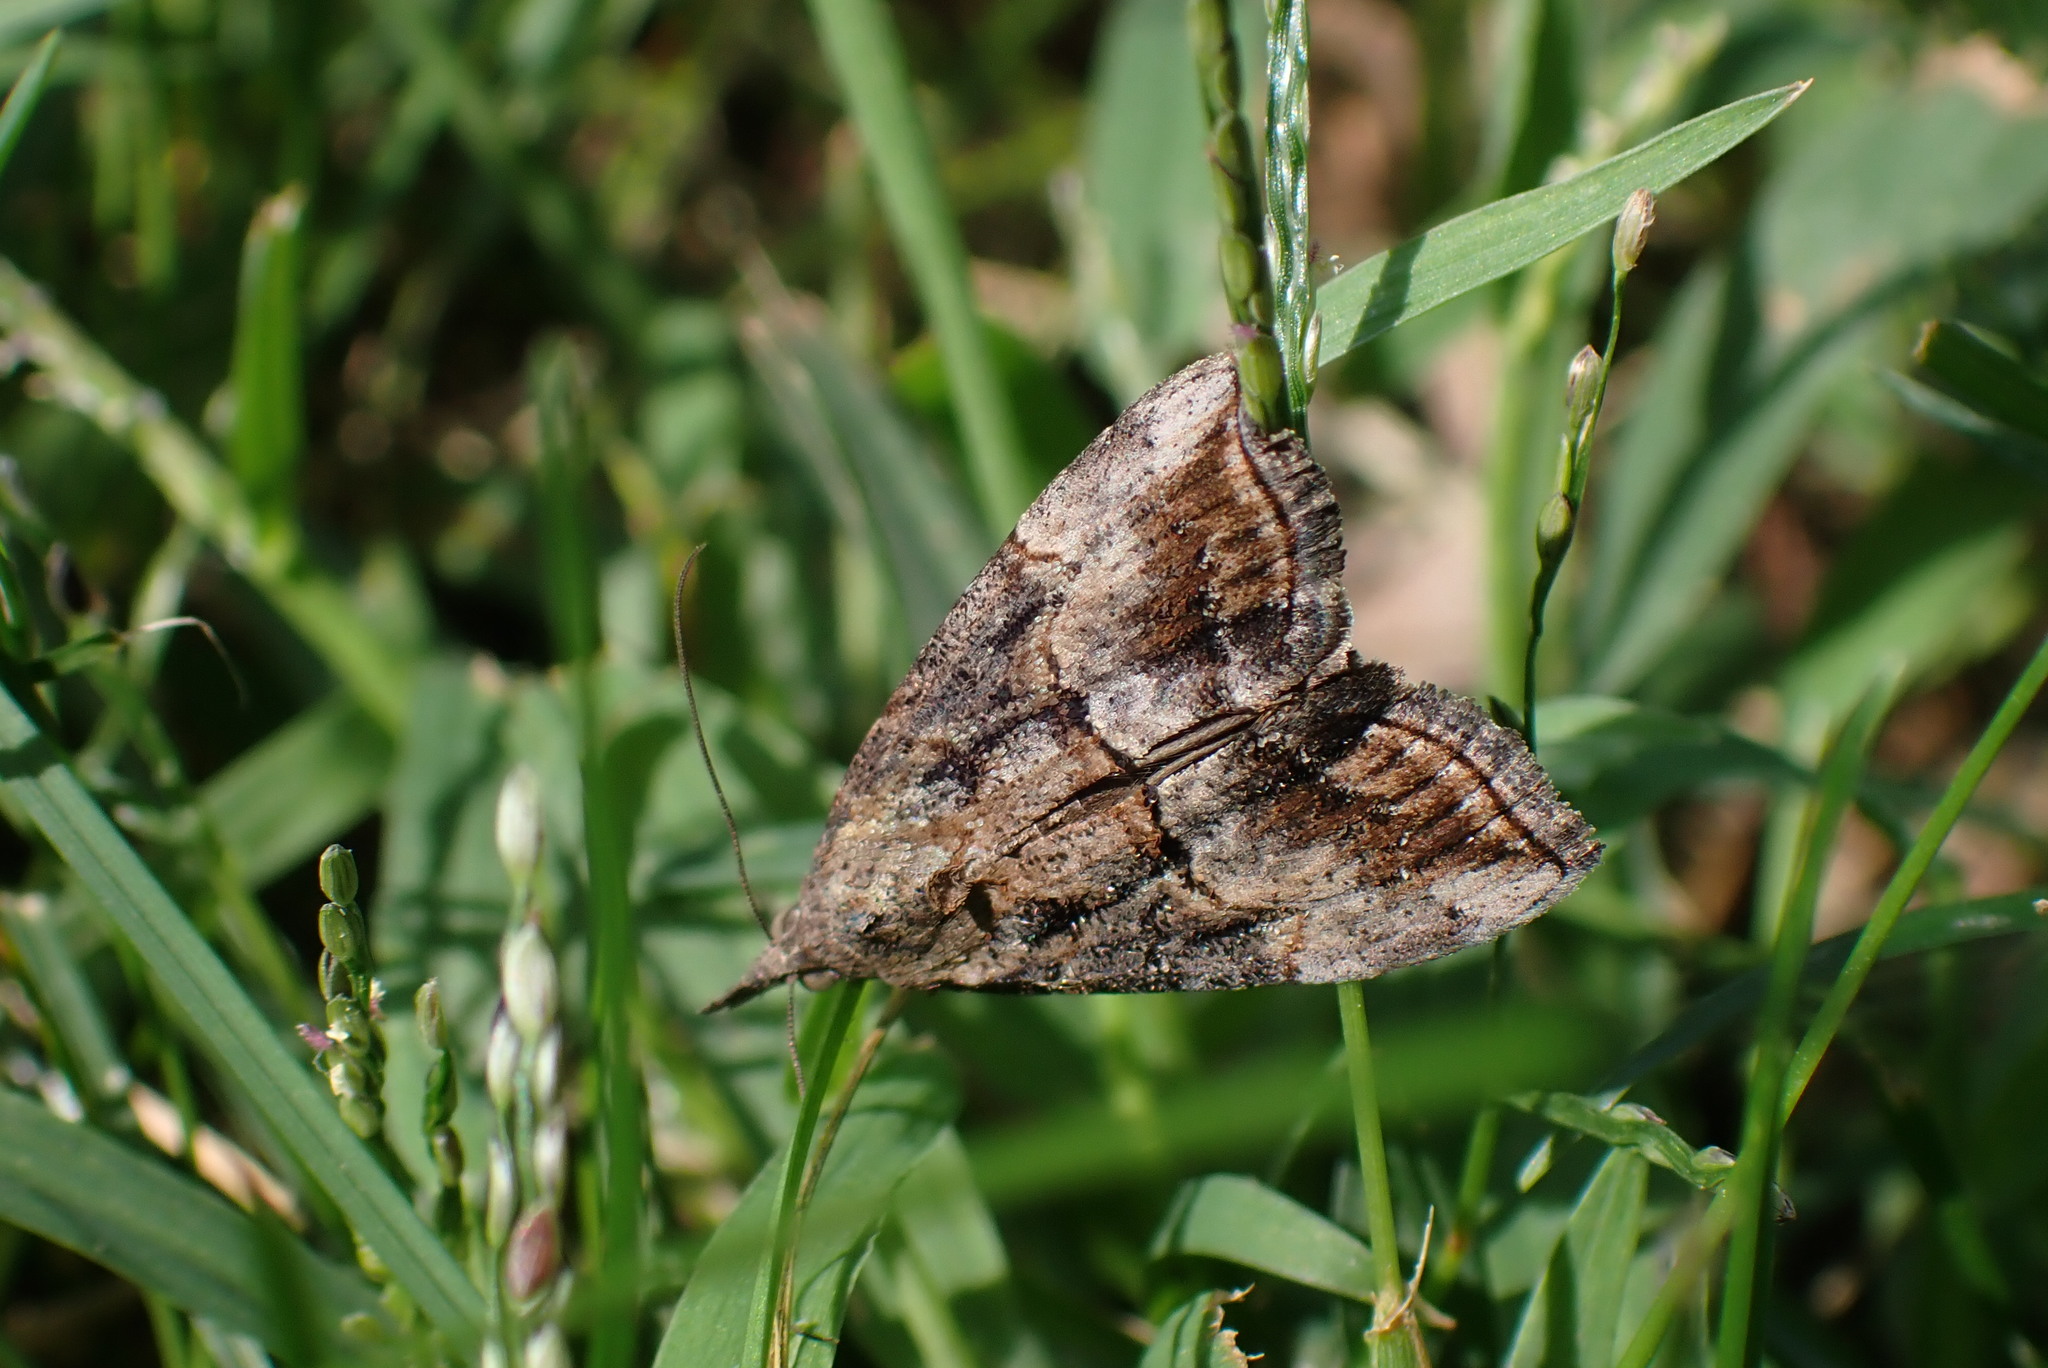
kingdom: Animalia
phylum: Arthropoda
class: Insecta
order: Lepidoptera
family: Erebidae
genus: Hypena
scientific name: Hypena scabra
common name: Green cloverworm
